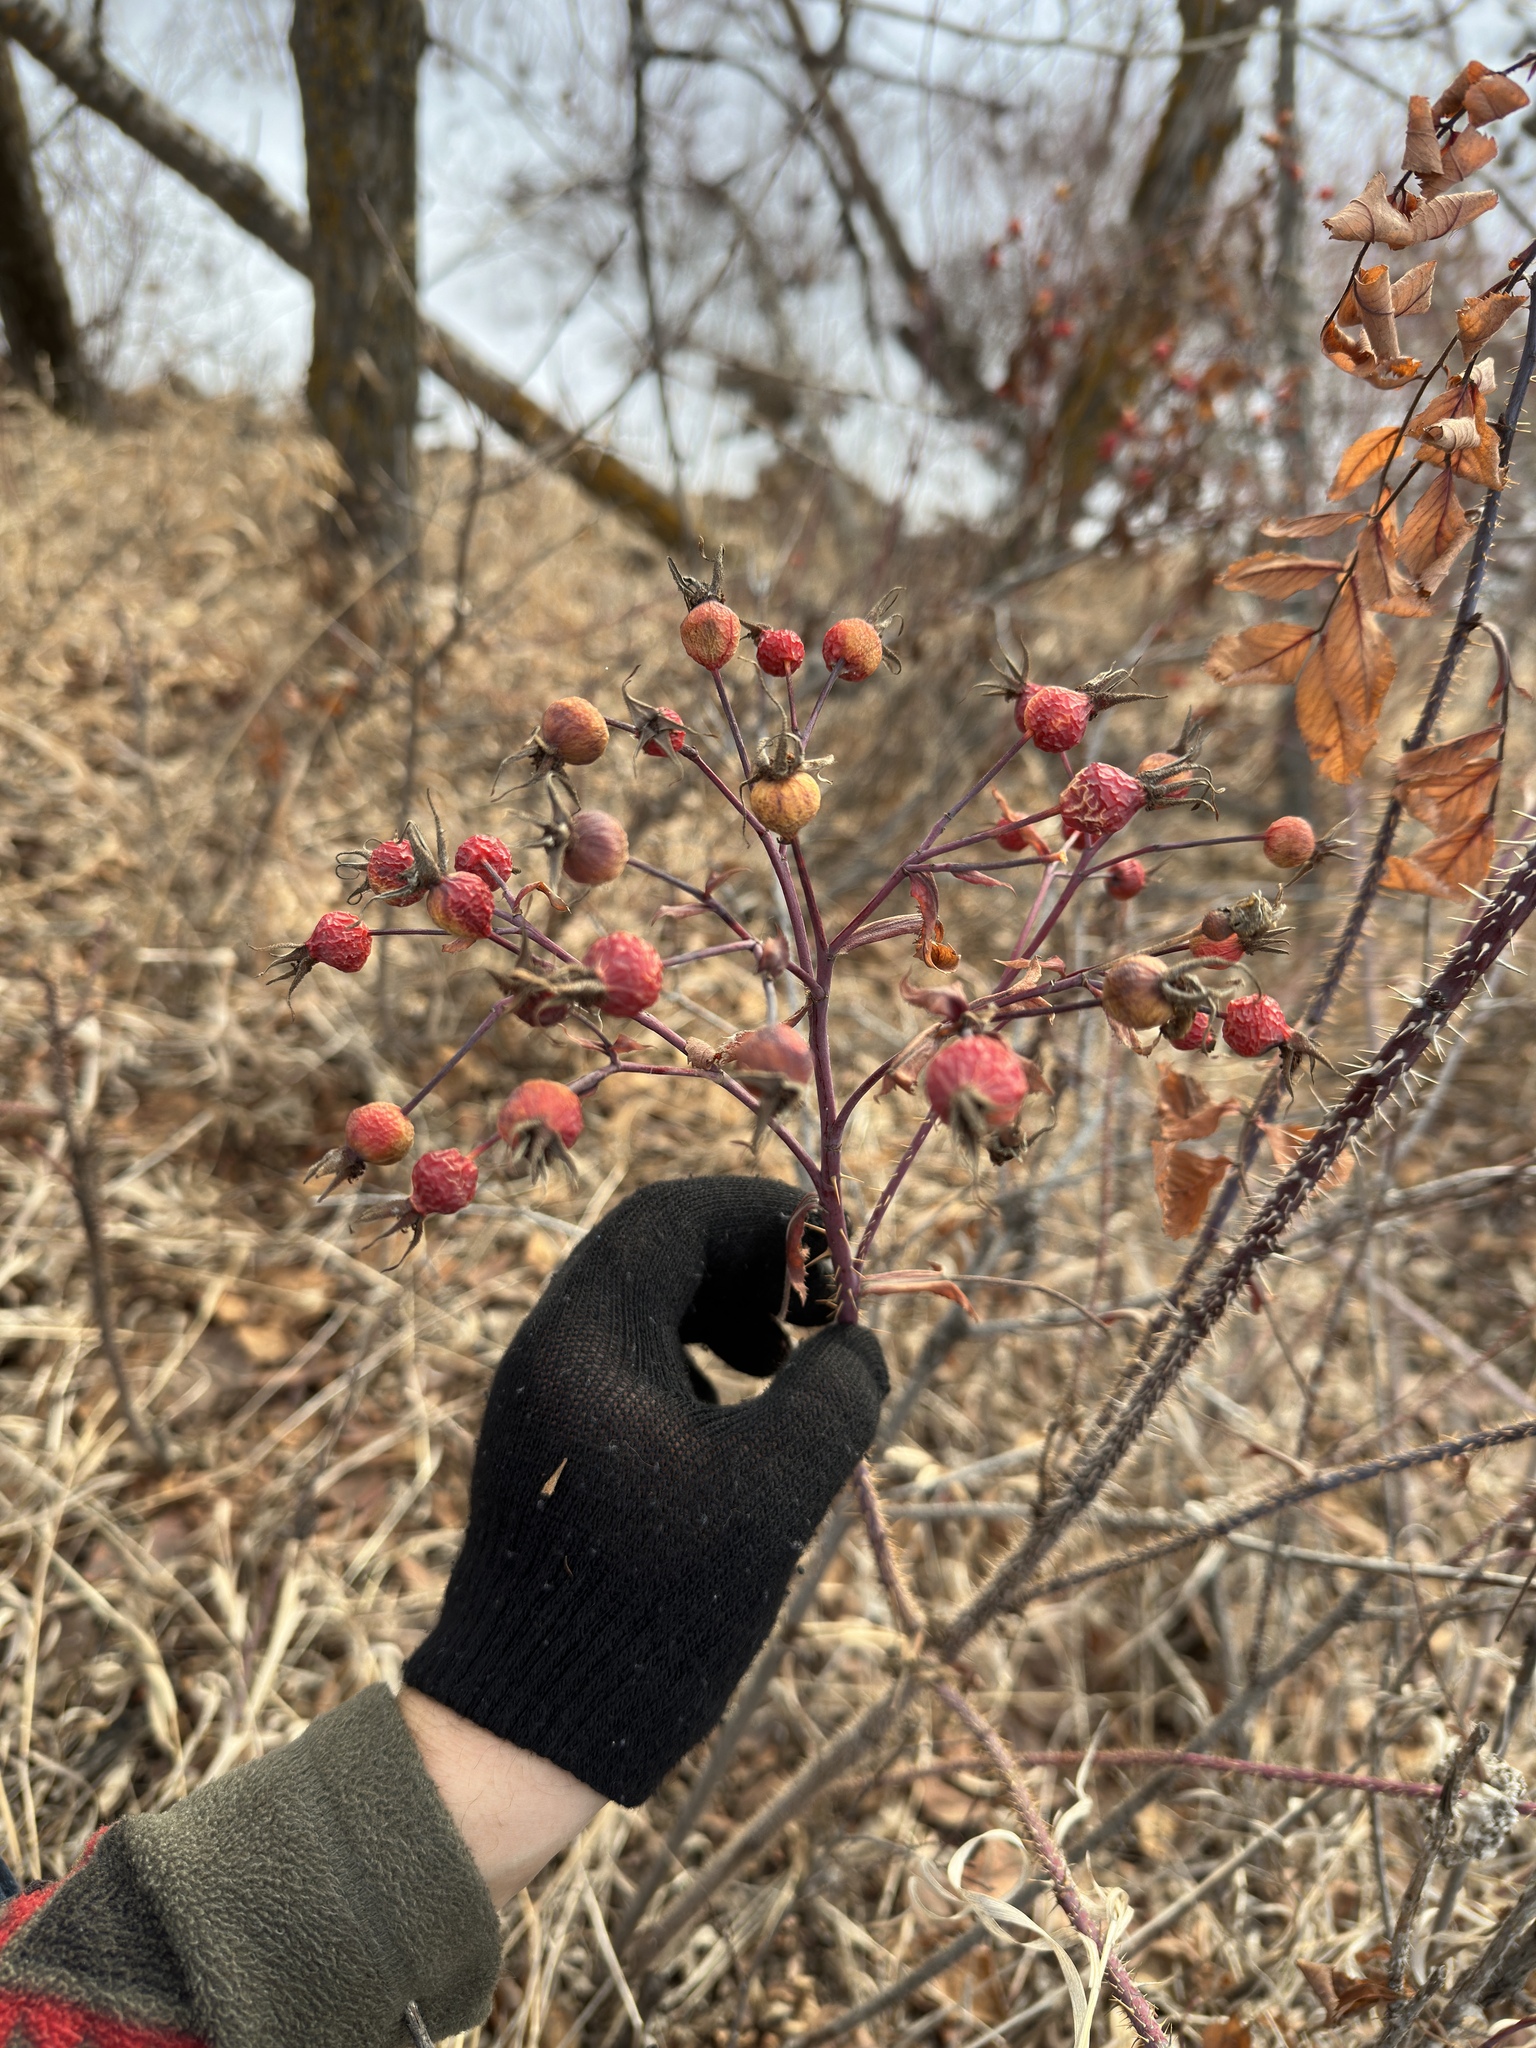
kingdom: Plantae
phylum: Tracheophyta
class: Magnoliopsida
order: Rosales
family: Rosaceae
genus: Rosa
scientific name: Rosa woodsii
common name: Woods's rose
